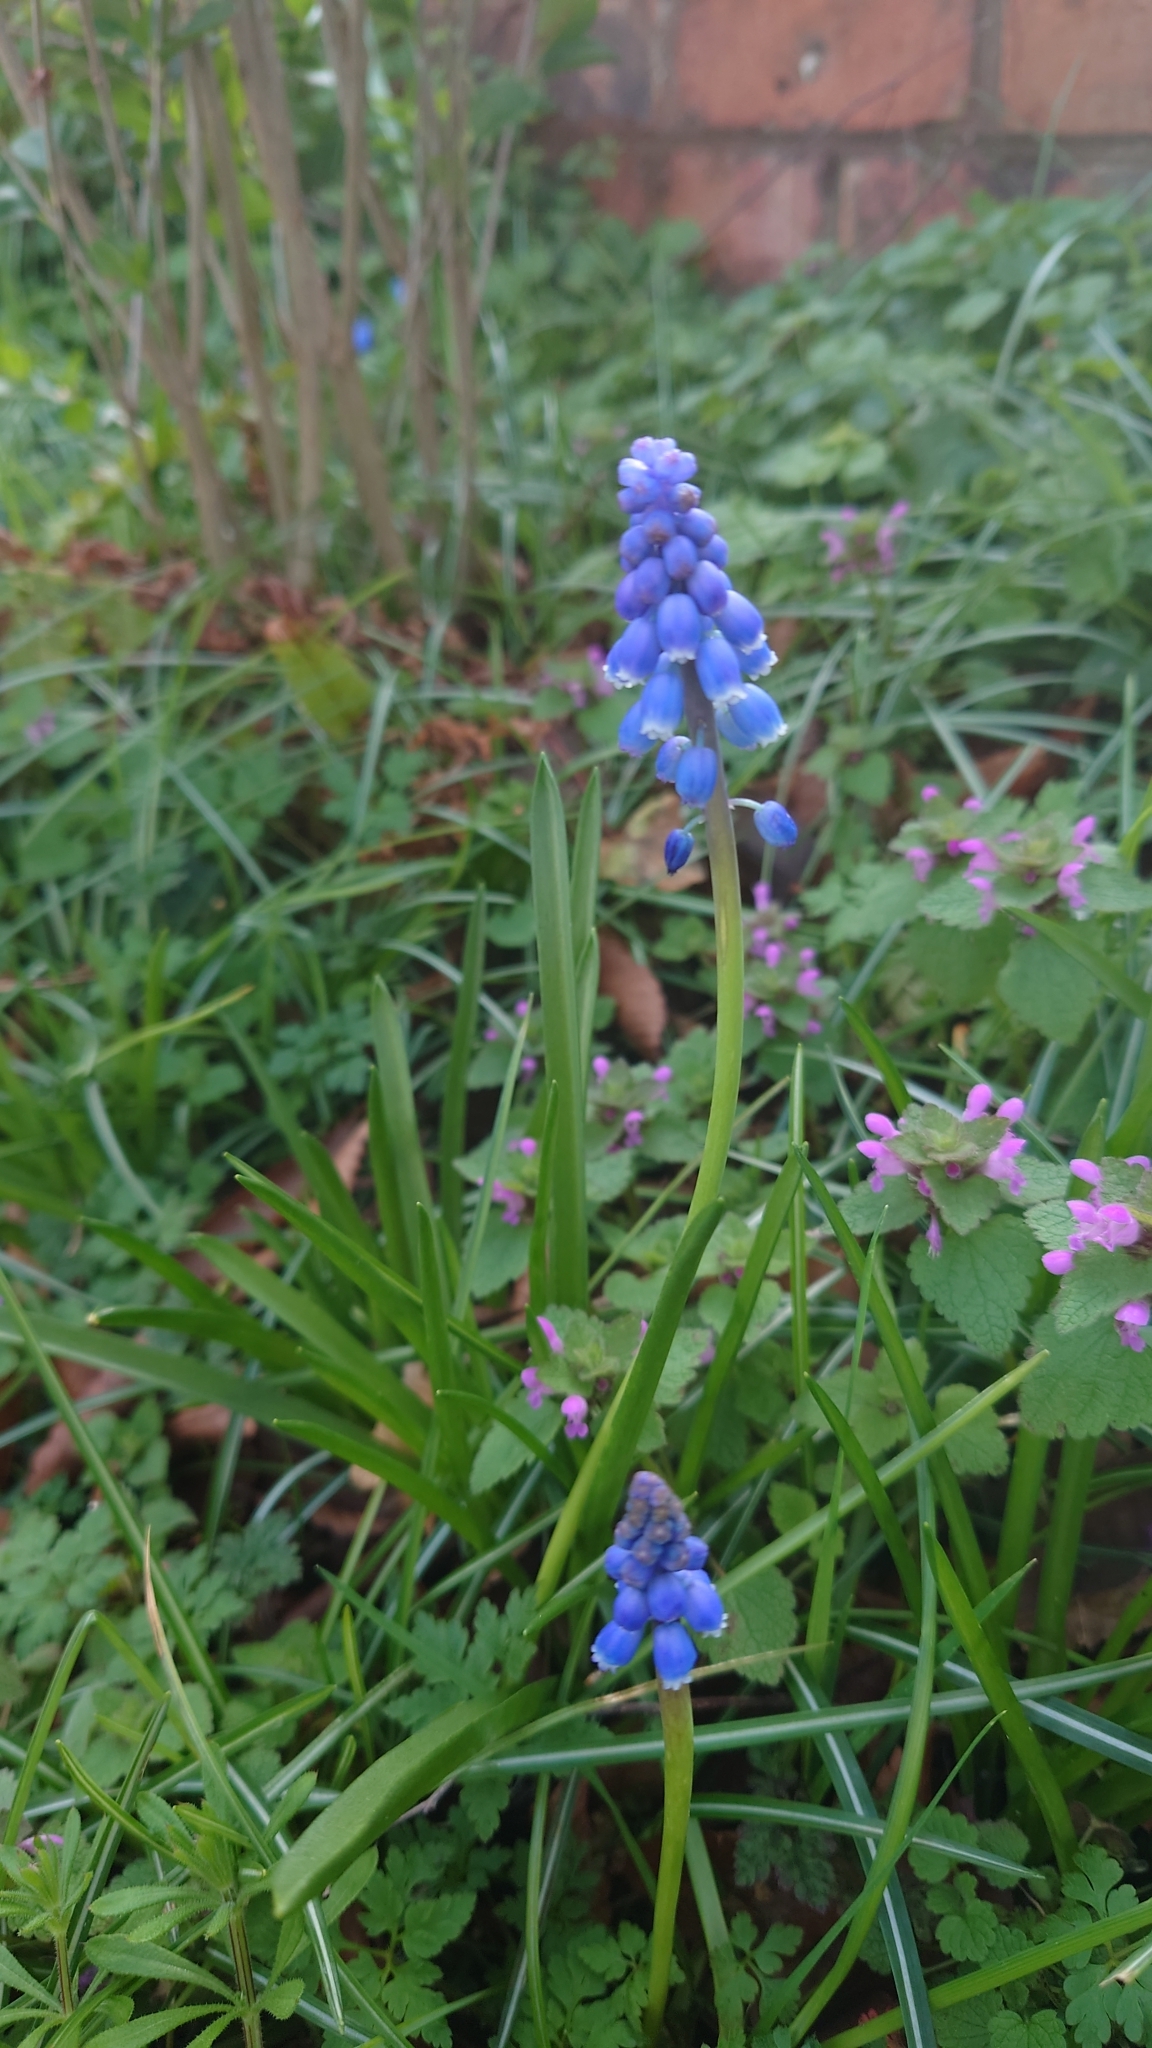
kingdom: Plantae
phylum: Tracheophyta
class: Liliopsida
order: Asparagales
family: Asparagaceae
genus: Muscari
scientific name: Muscari armeniacum
